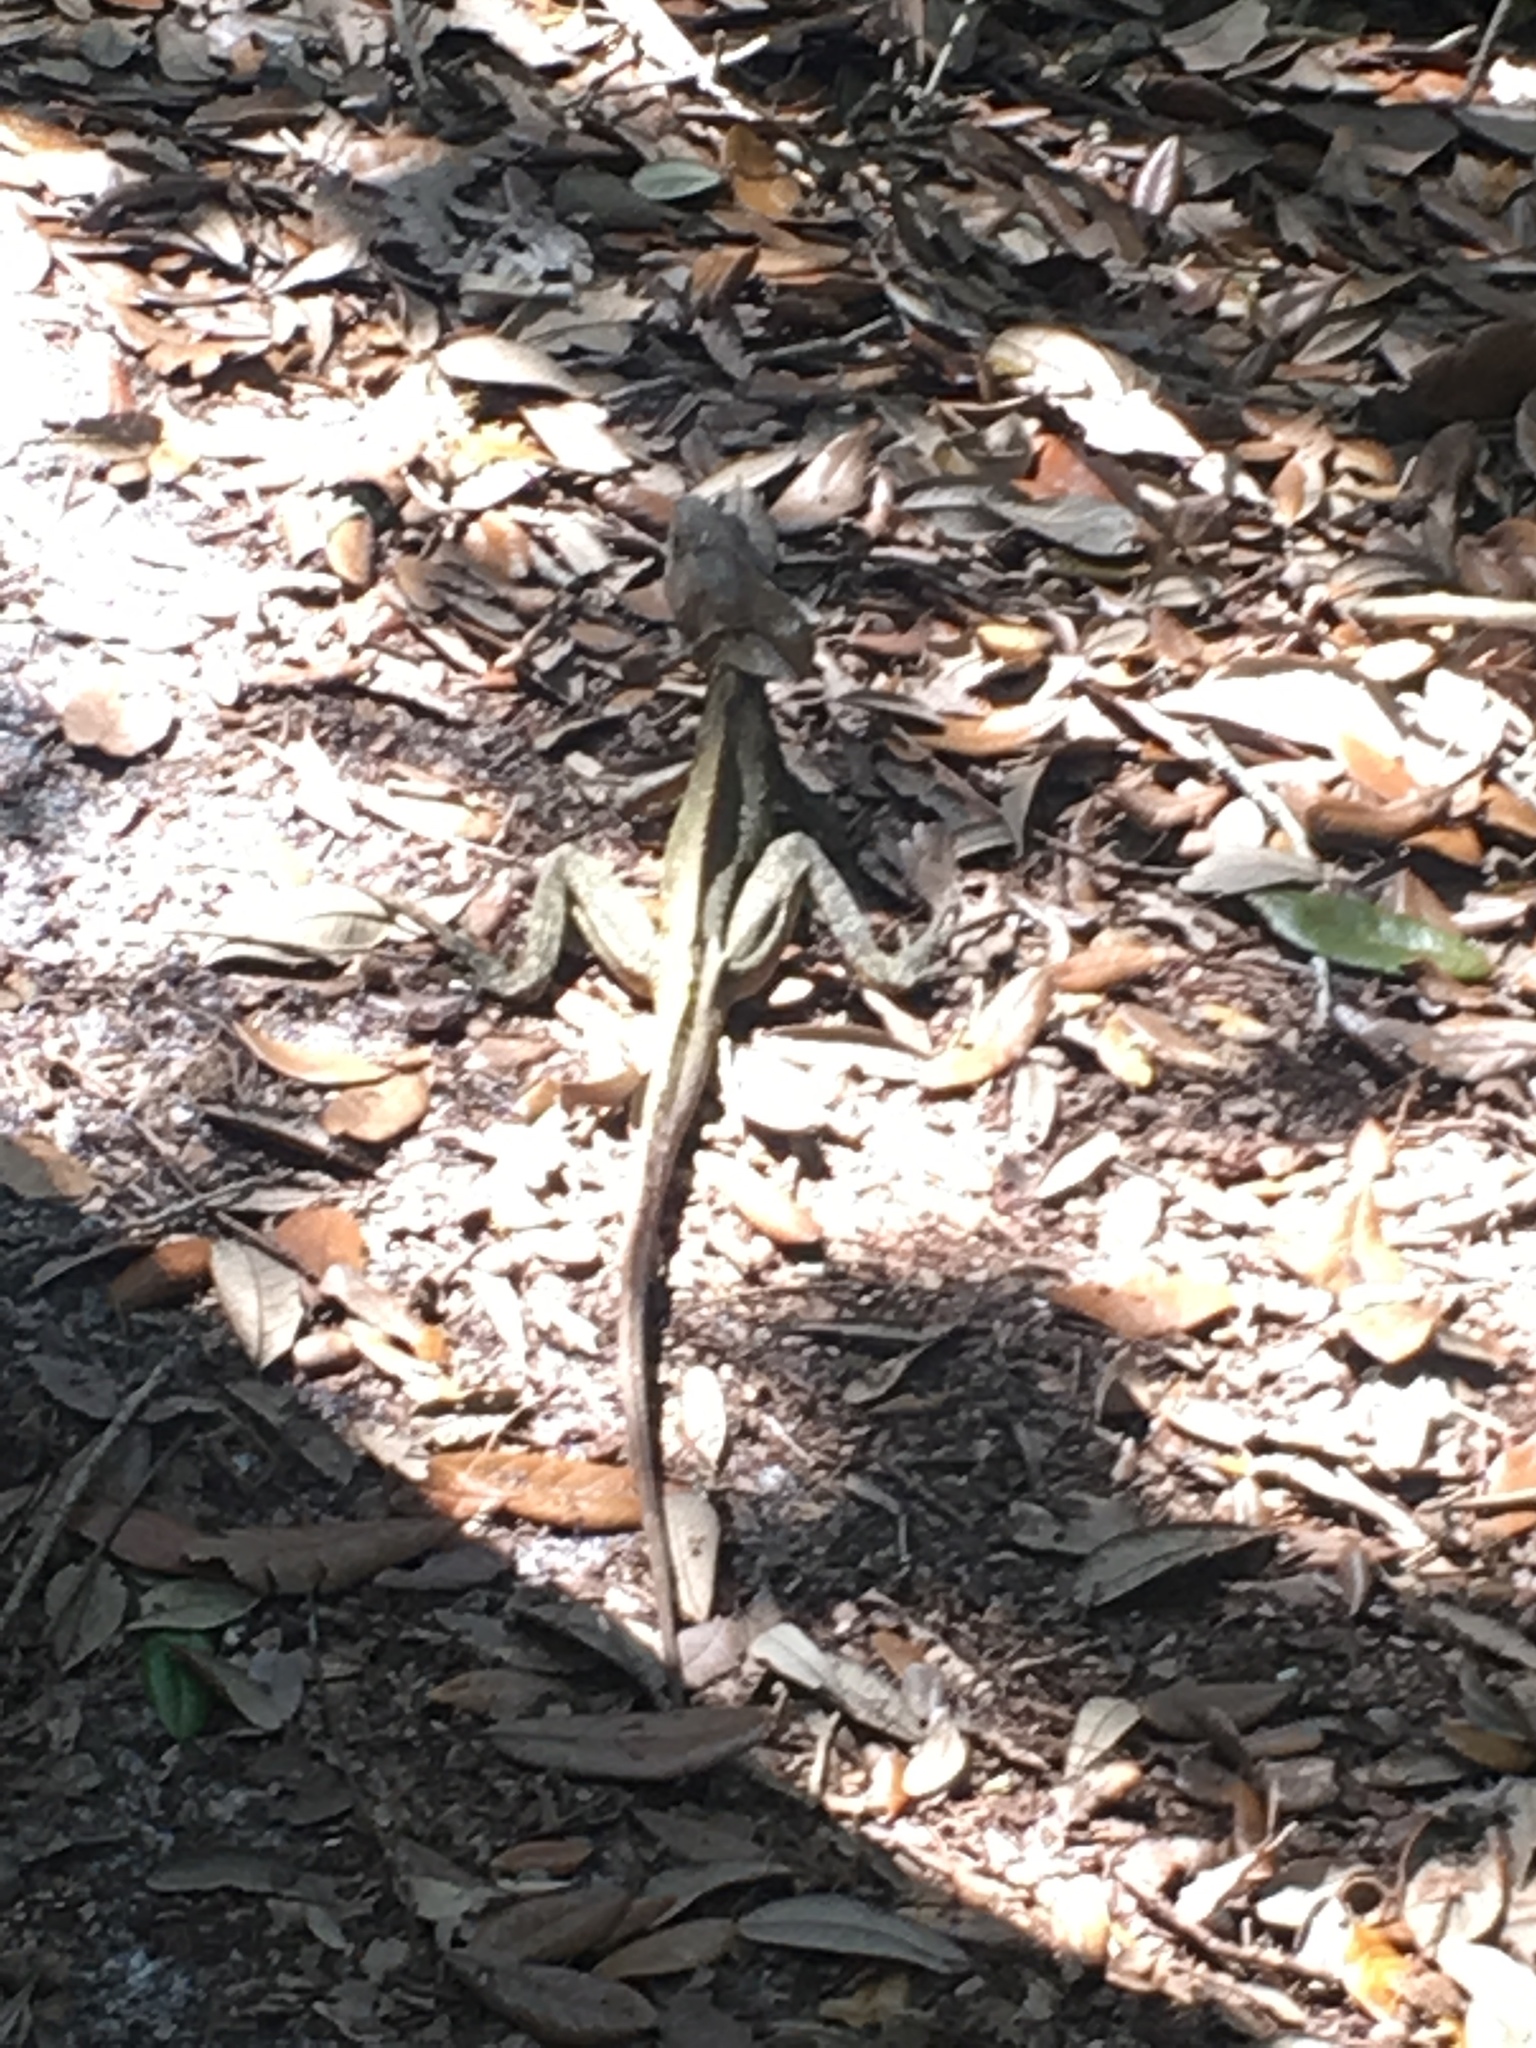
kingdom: Animalia
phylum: Chordata
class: Squamata
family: Corytophanidae
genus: Basiliscus
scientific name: Basiliscus vittatus
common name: Brown basilisk
